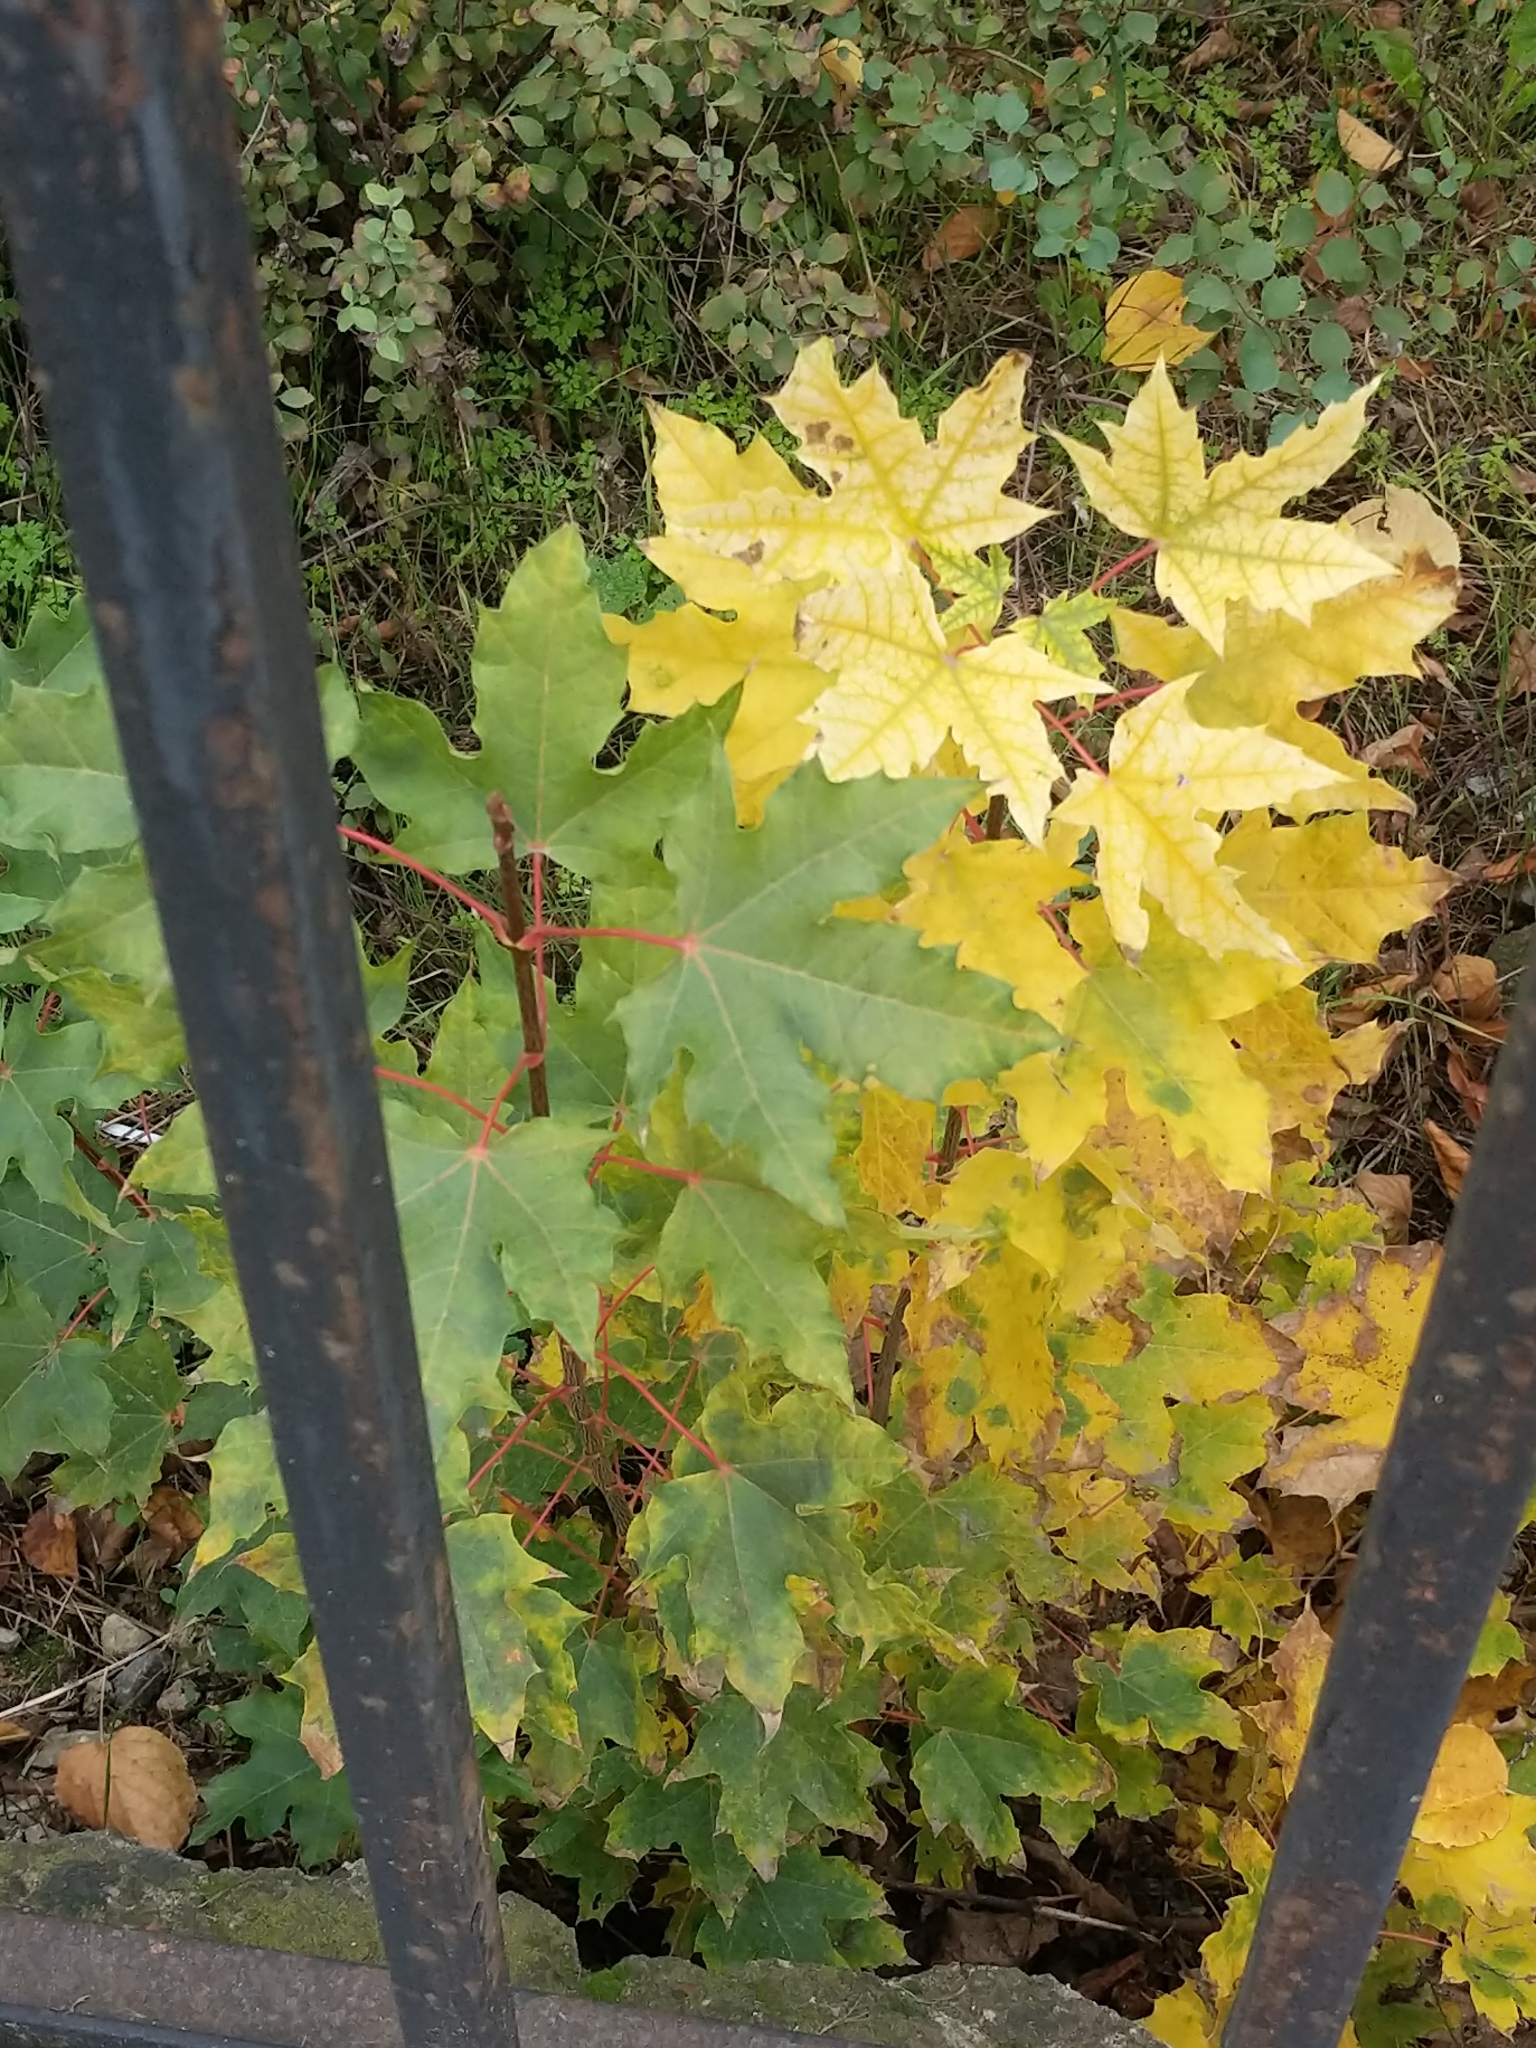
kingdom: Plantae
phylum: Tracheophyta
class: Magnoliopsida
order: Sapindales
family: Sapindaceae
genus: Acer
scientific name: Acer platanoides
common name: Norway maple
